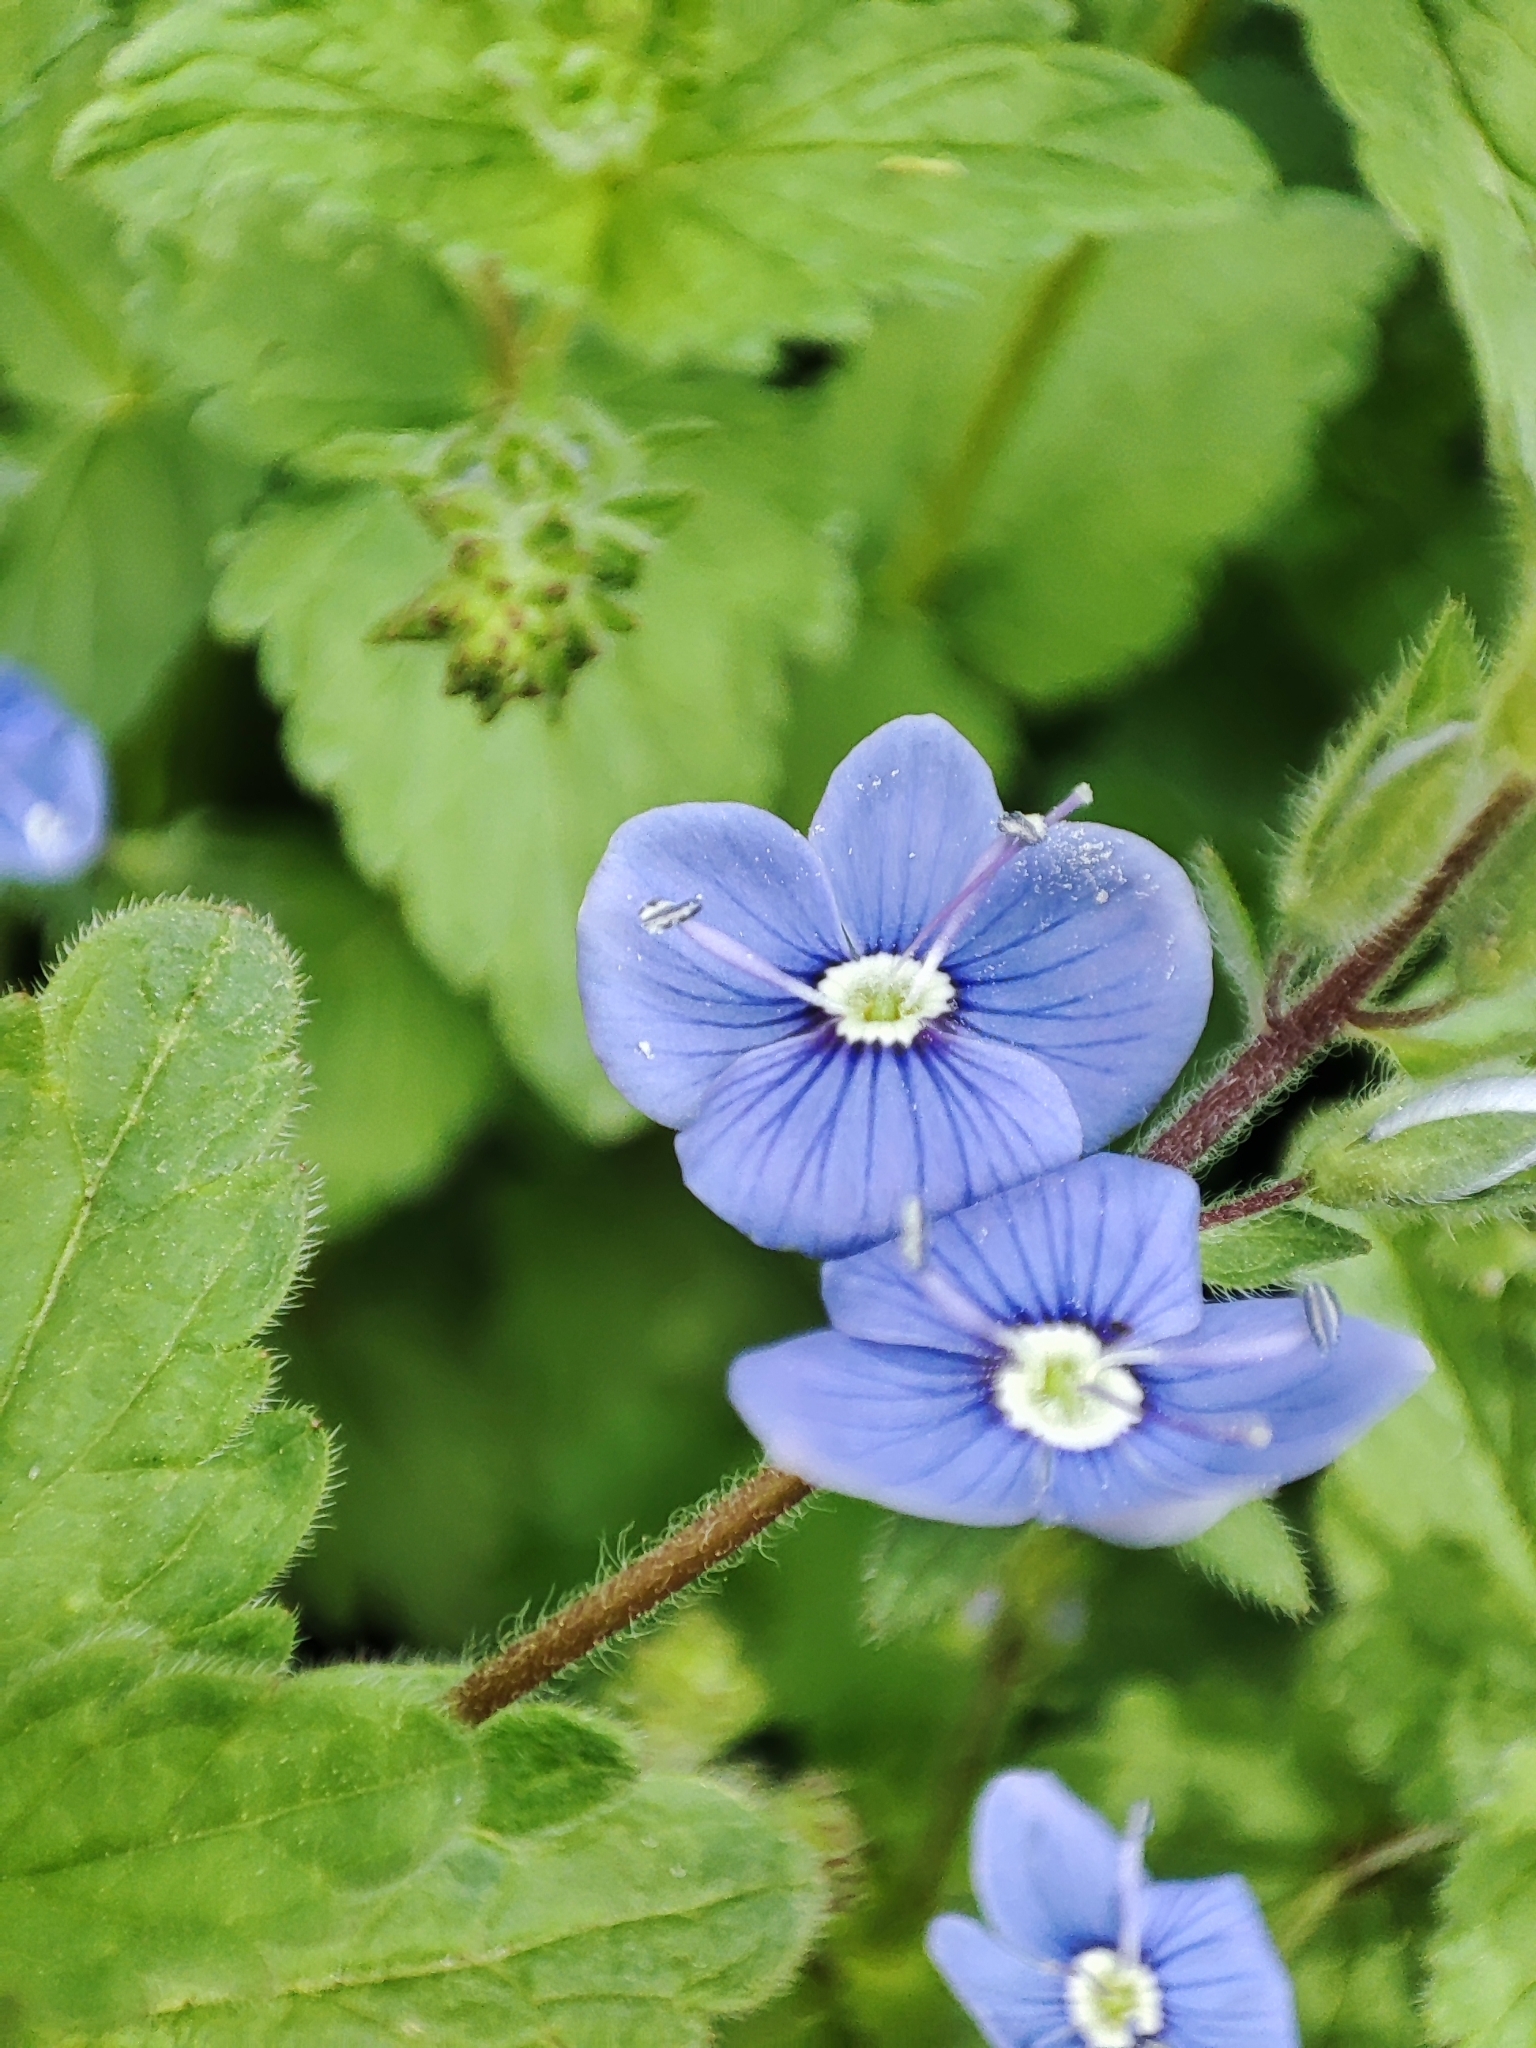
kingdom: Plantae
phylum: Tracheophyta
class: Magnoliopsida
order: Lamiales
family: Plantaginaceae
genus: Veronica
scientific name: Veronica chamaedrys
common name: Germander speedwell
